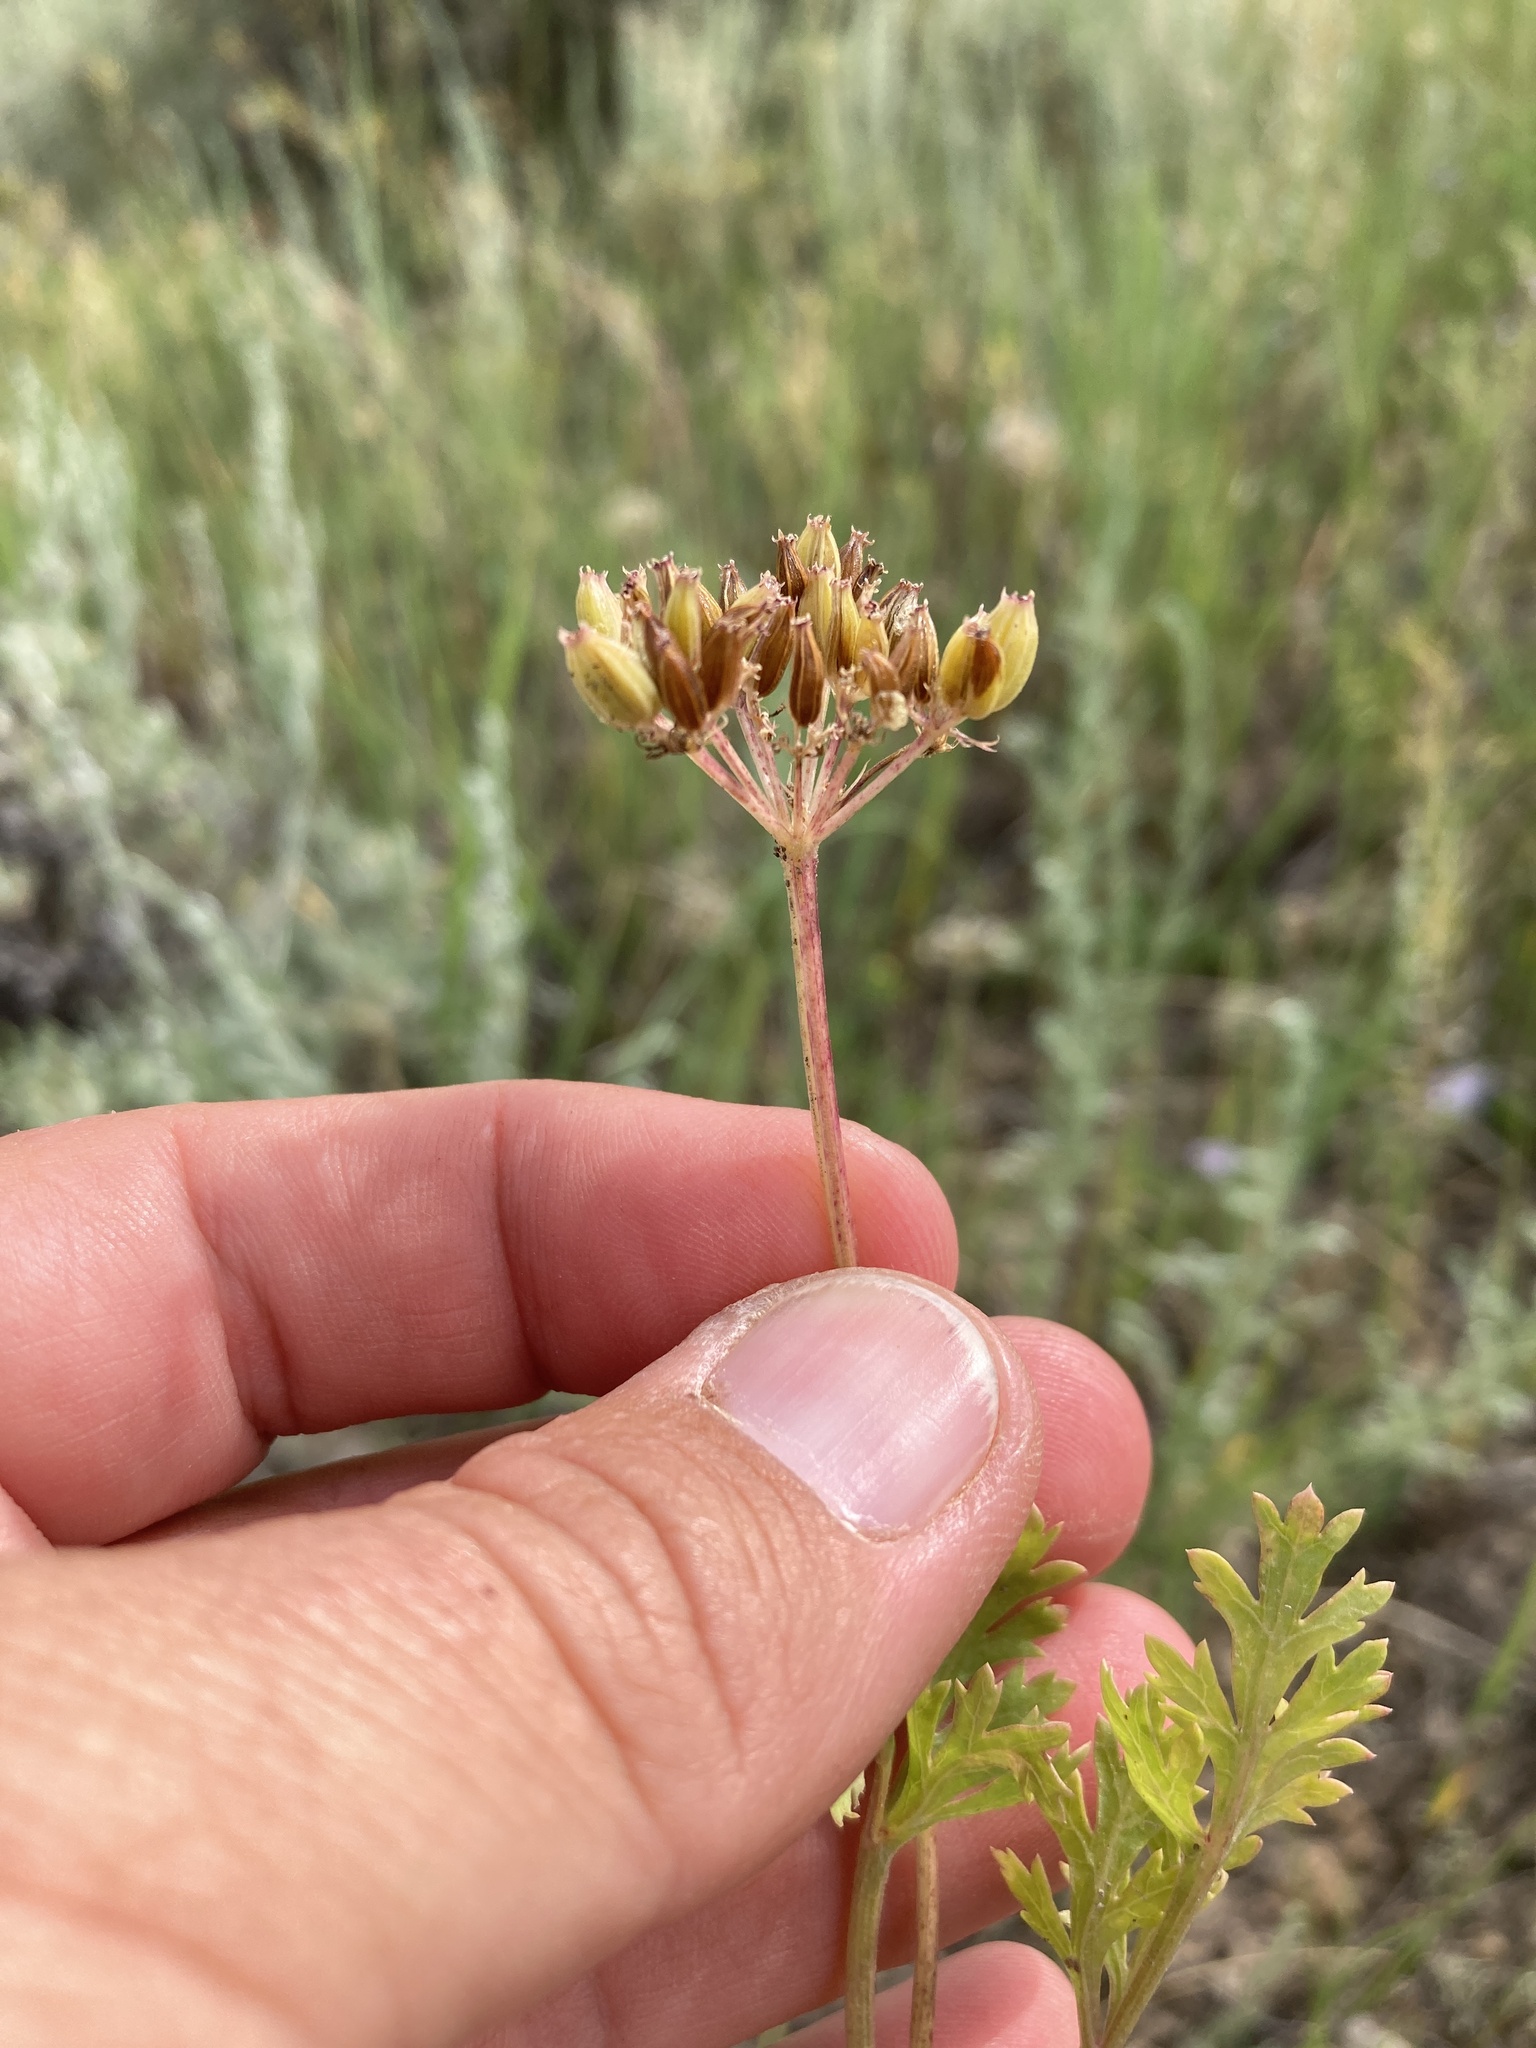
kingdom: Plantae
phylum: Tracheophyta
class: Magnoliopsida
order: Apiales
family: Apiaceae
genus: Musineon
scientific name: Musineon divaricatum
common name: Plains musineon
